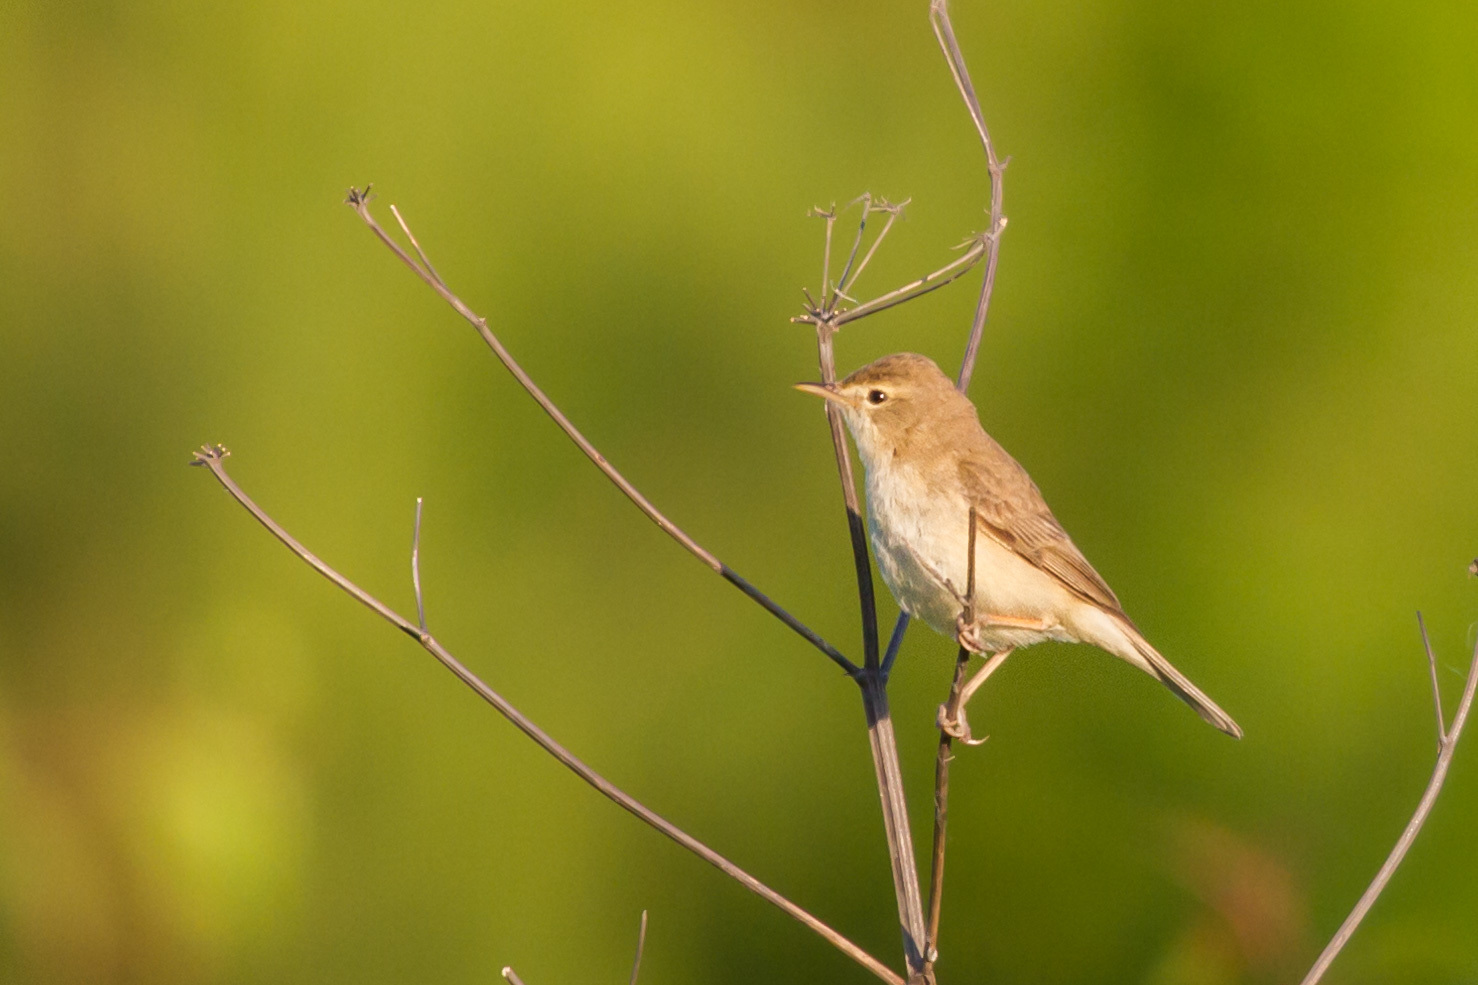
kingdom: Animalia
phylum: Chordata
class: Aves
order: Passeriformes
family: Acrocephalidae
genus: Iduna
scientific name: Iduna caligata
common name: Booted warbler
